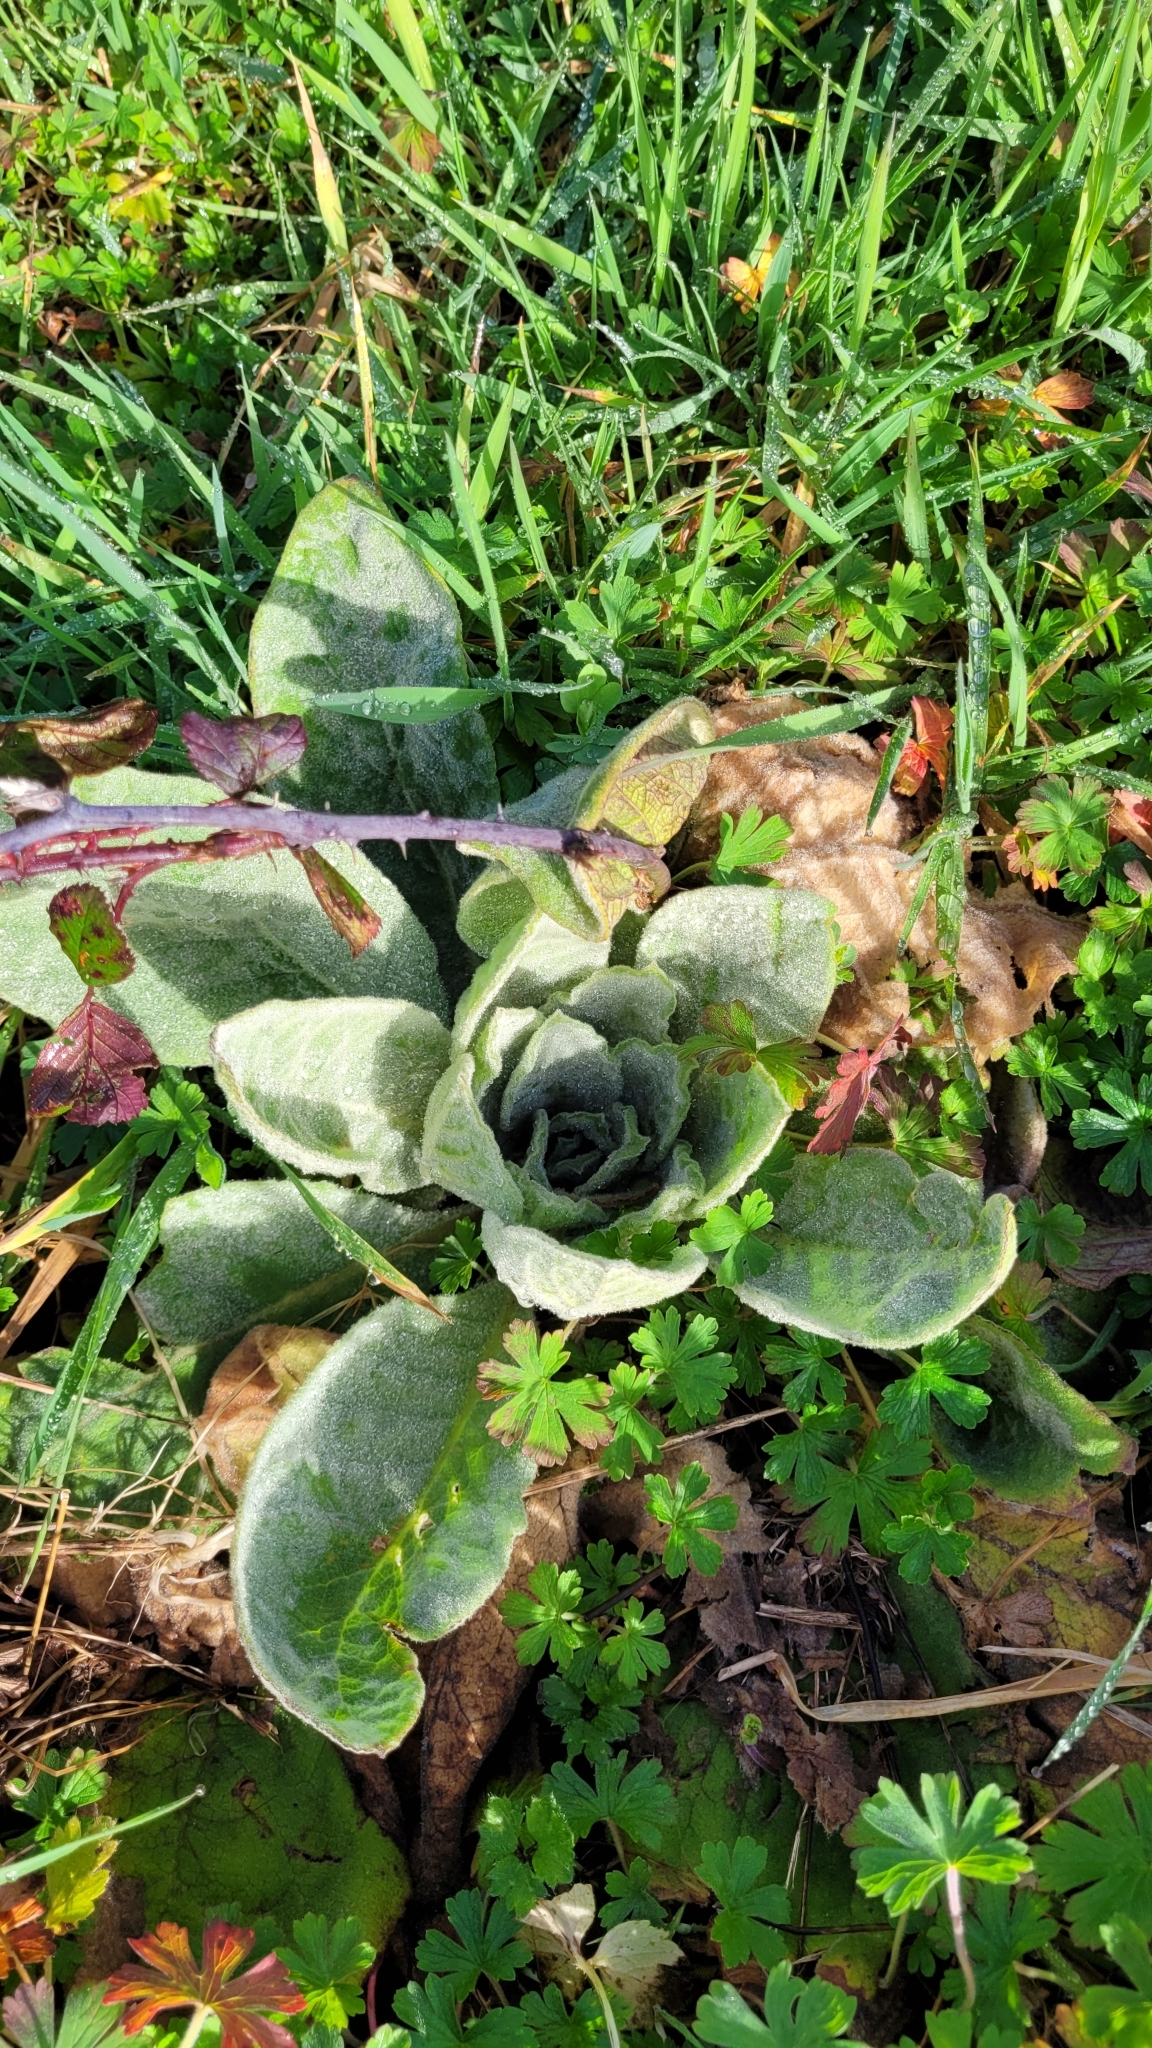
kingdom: Plantae
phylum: Tracheophyta
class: Magnoliopsida
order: Lamiales
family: Scrophulariaceae
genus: Verbascum
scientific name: Verbascum thapsus
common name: Common mullein
